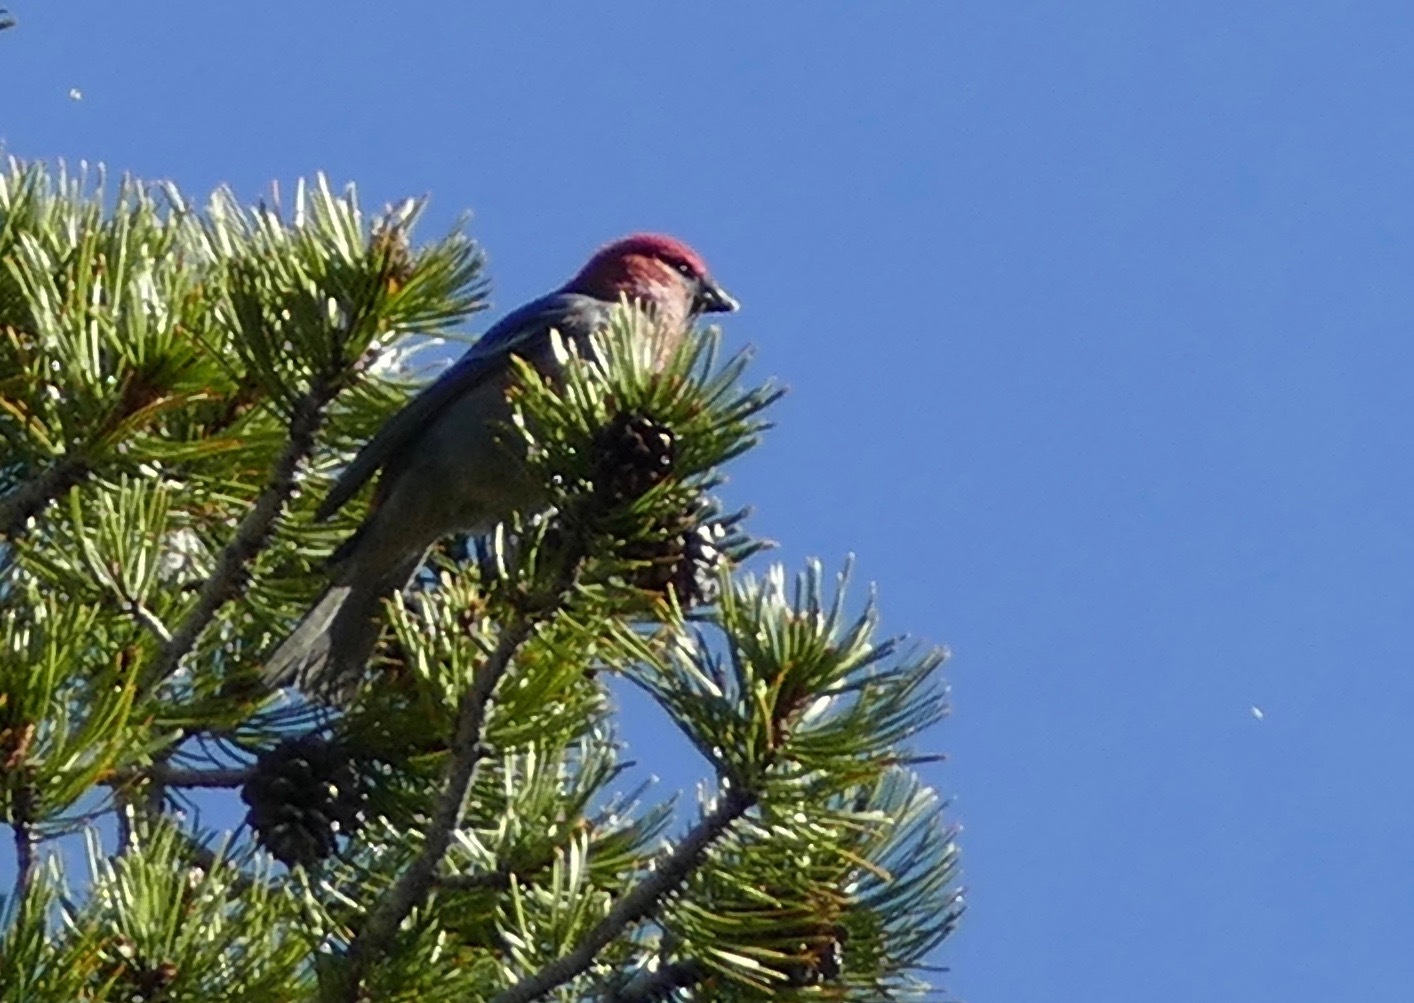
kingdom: Animalia
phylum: Chordata
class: Aves
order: Passeriformes
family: Fringillidae
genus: Pinicola
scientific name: Pinicola enucleator
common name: Pine grosbeak
